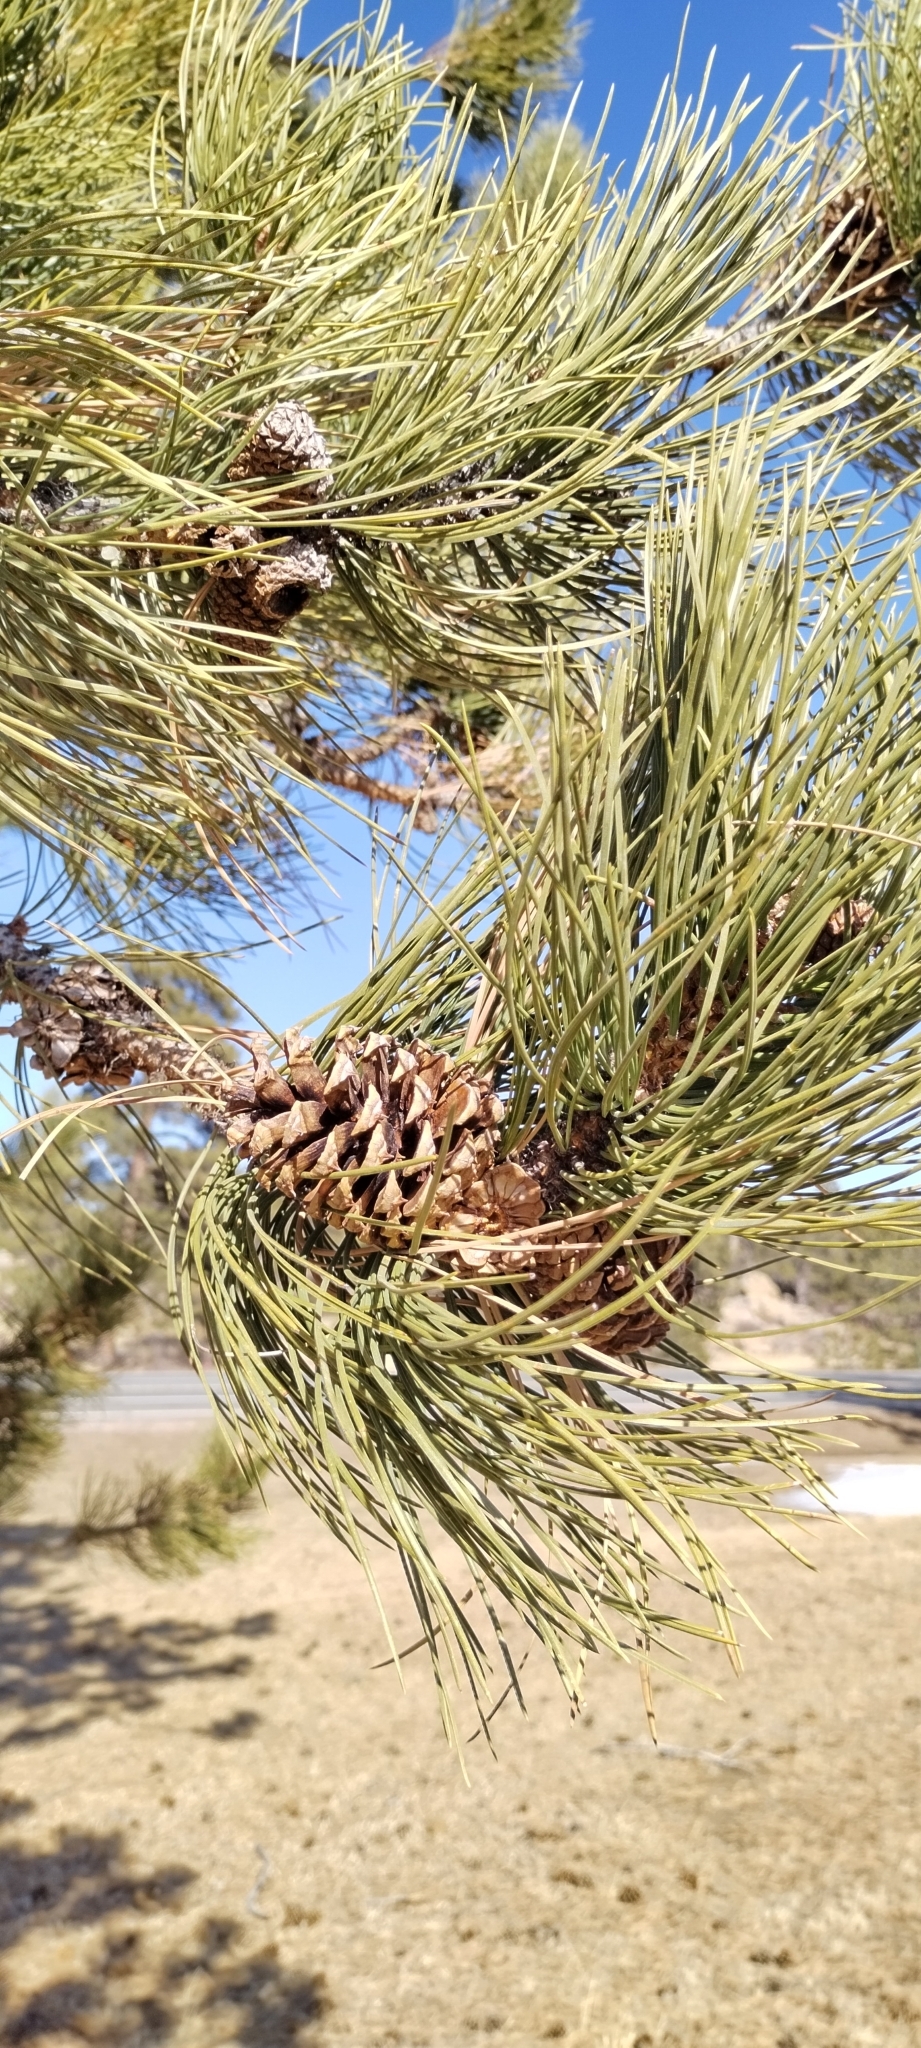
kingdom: Plantae
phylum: Tracheophyta
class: Pinopsida
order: Pinales
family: Pinaceae
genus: Pinus
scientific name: Pinus ponderosa
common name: Western yellow-pine
